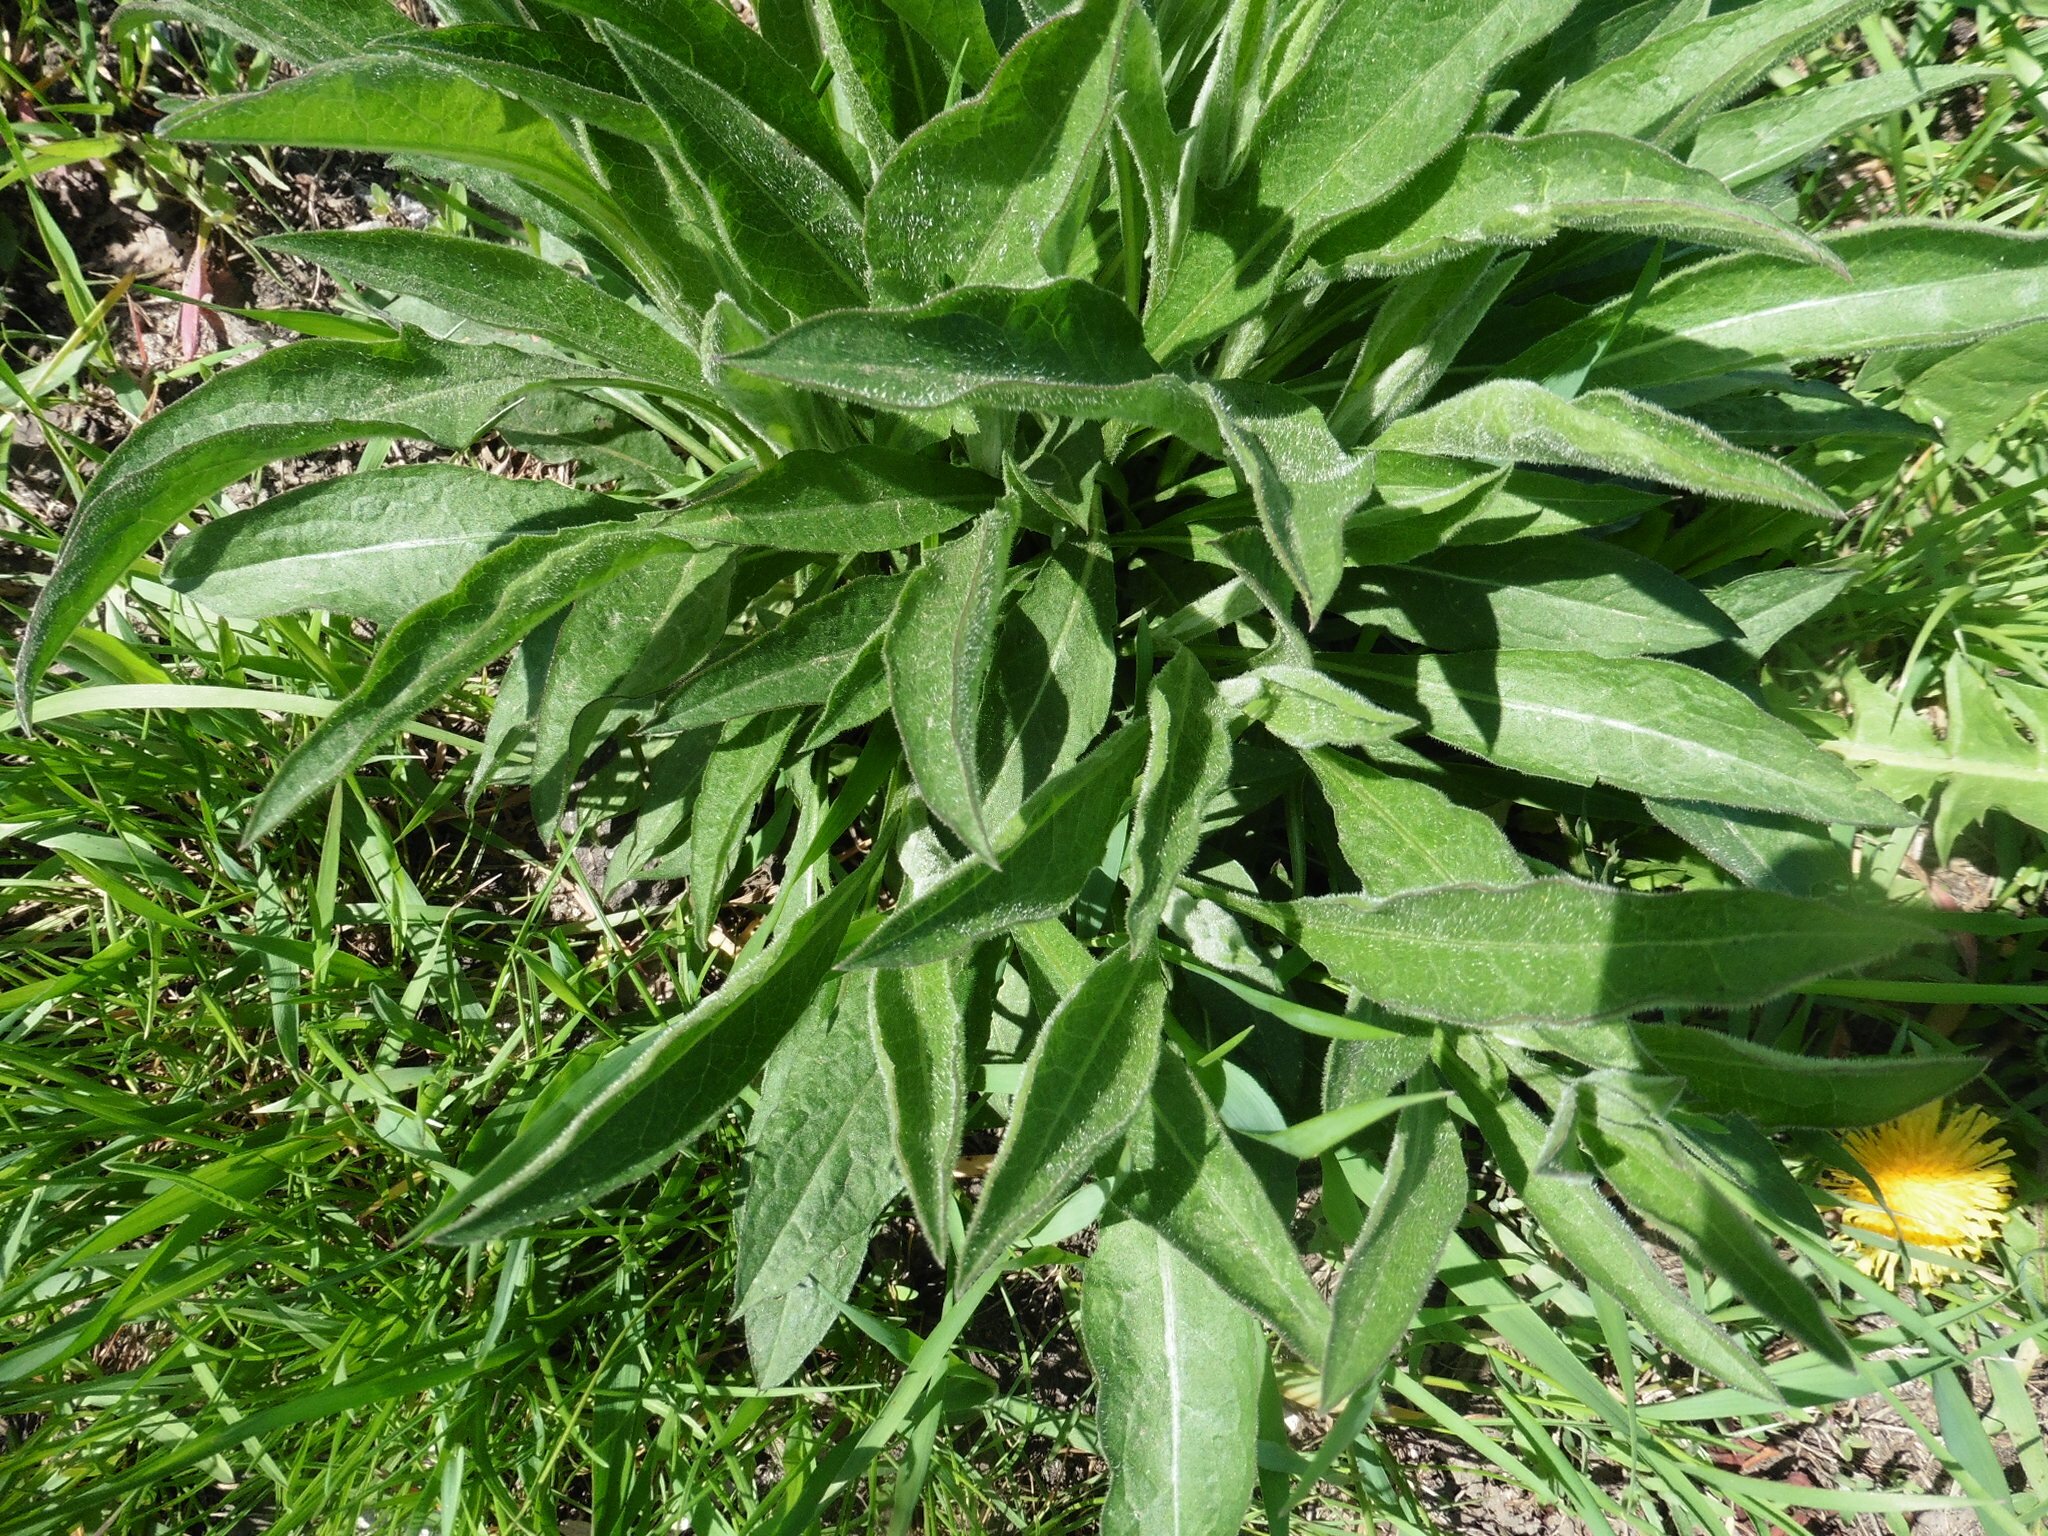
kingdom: Plantae
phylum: Tracheophyta
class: Magnoliopsida
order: Asterales
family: Asteraceae
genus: Centaurea
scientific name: Centaurea jacea
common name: Brown knapweed
